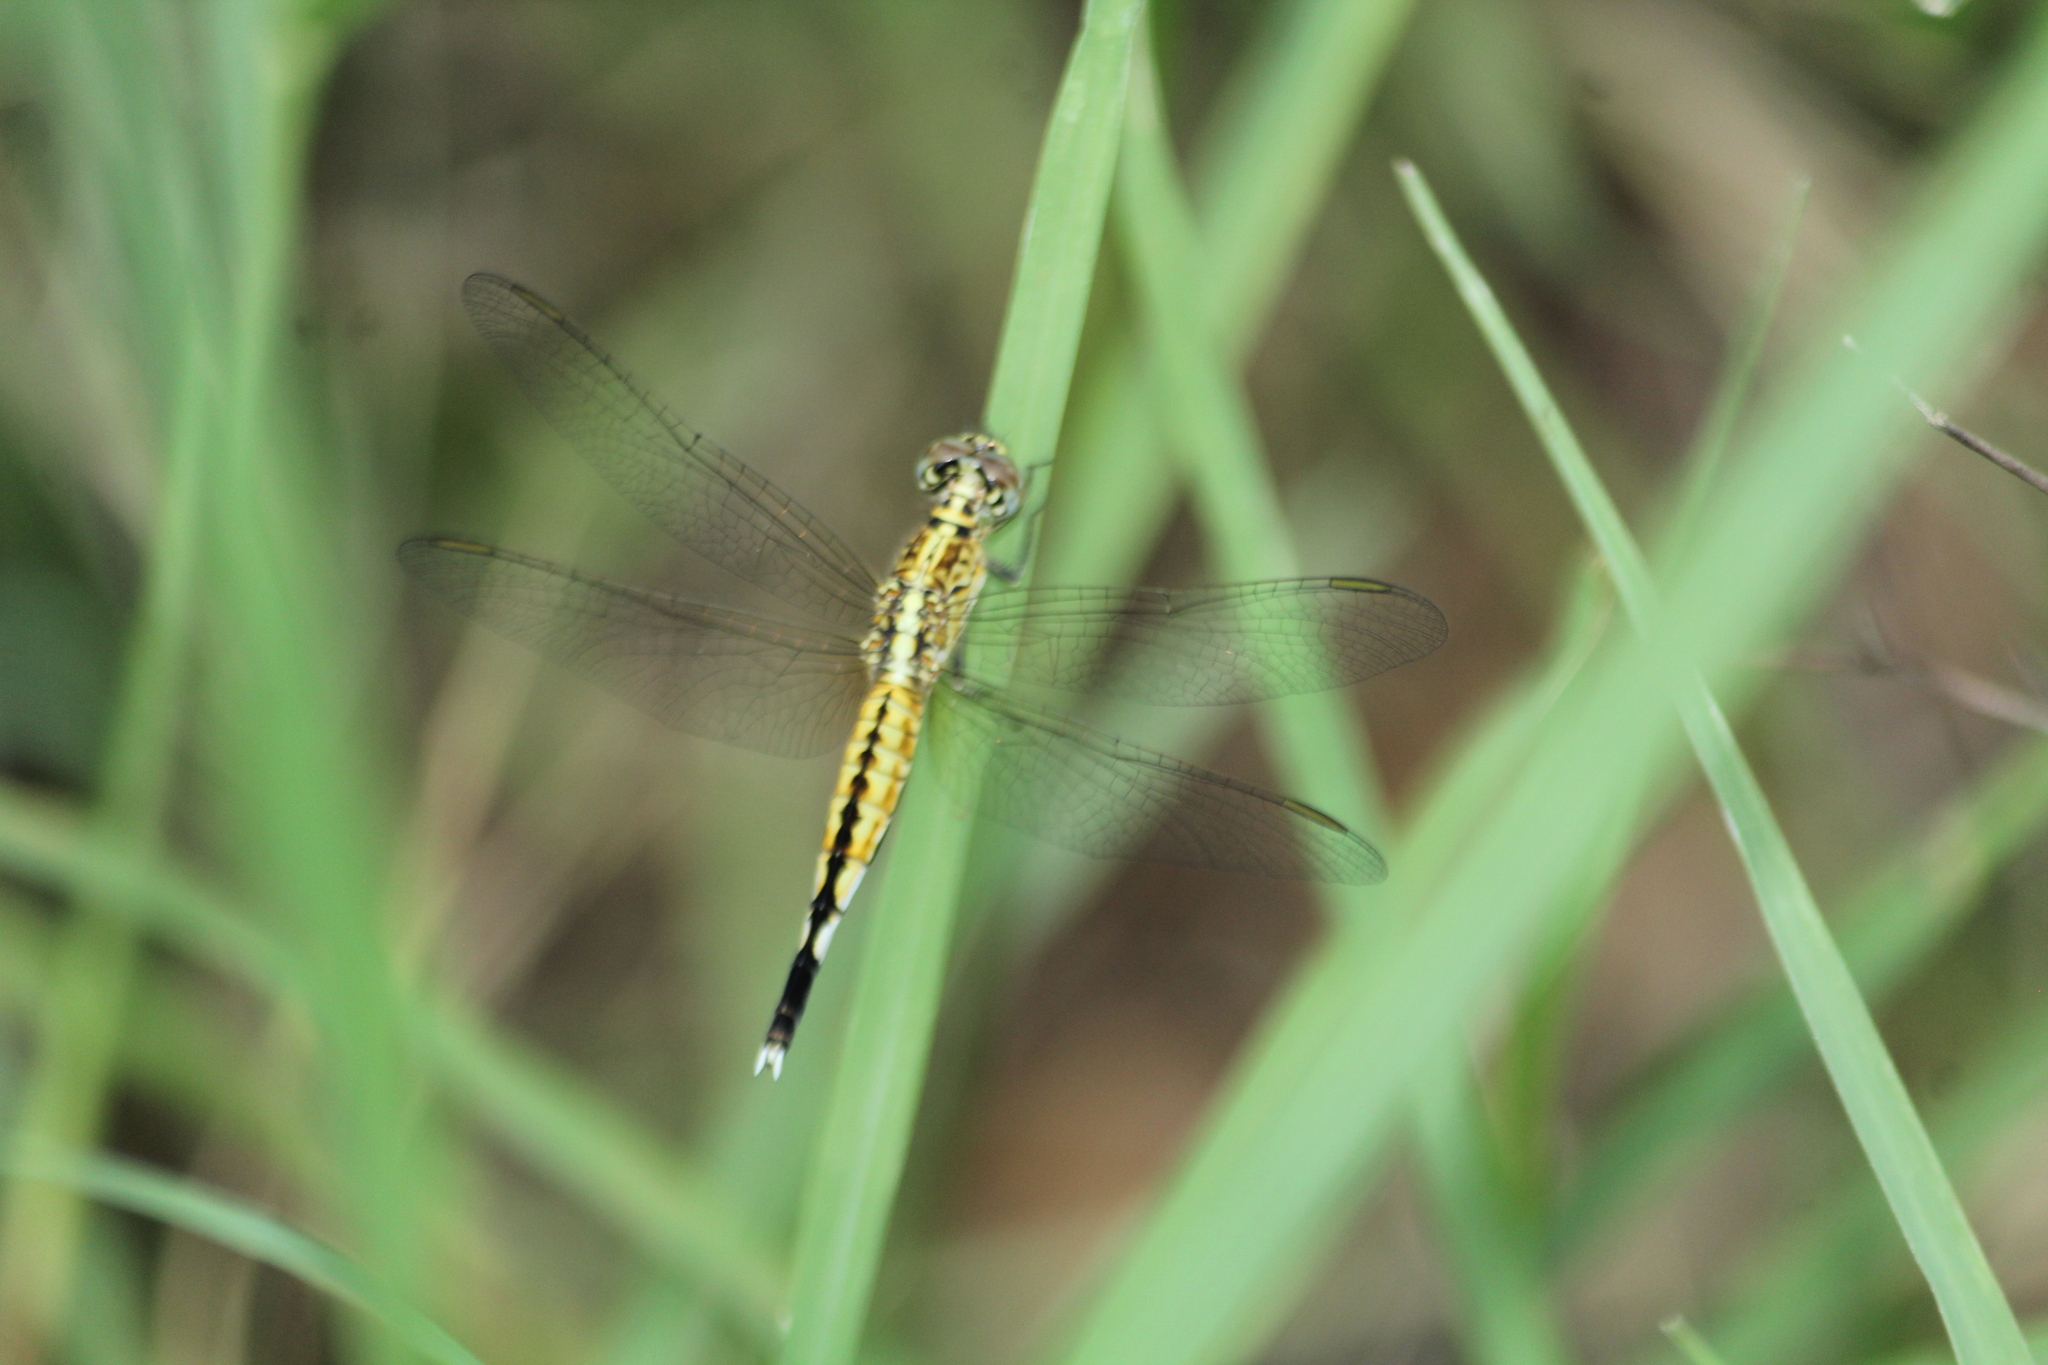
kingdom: Animalia
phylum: Arthropoda
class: Insecta
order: Odonata
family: Libellulidae
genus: Acisoma
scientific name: Acisoma panorpoides
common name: Asian pintail
